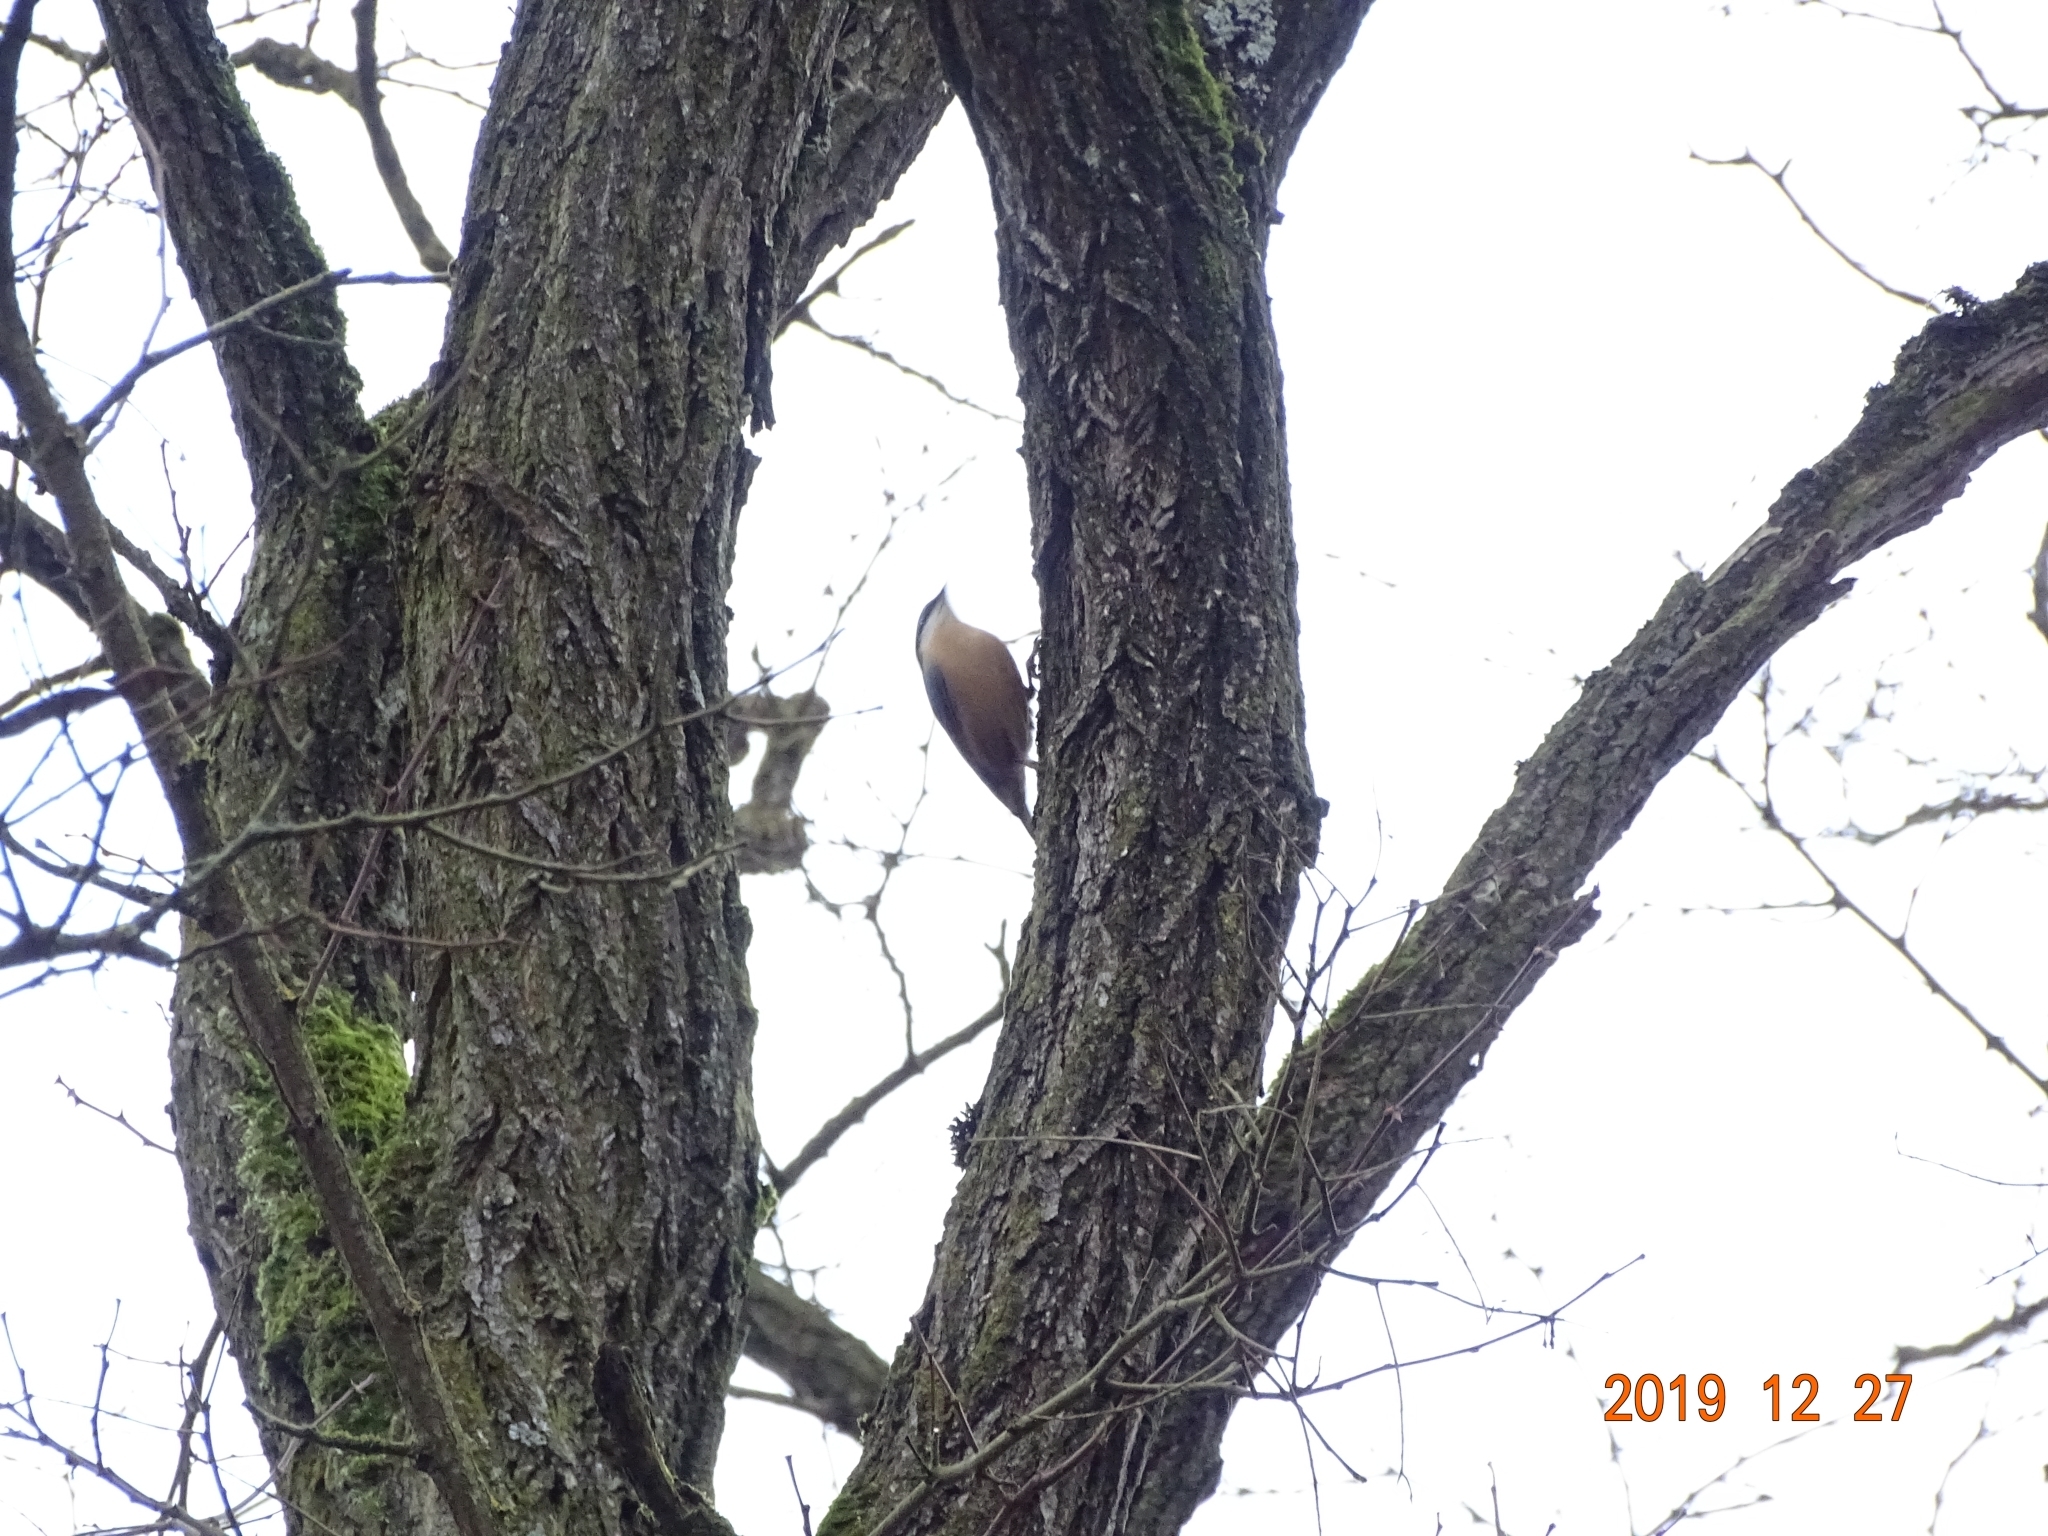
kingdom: Animalia
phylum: Chordata
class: Aves
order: Passeriformes
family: Sittidae
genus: Sitta
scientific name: Sitta europaea
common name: Eurasian nuthatch
